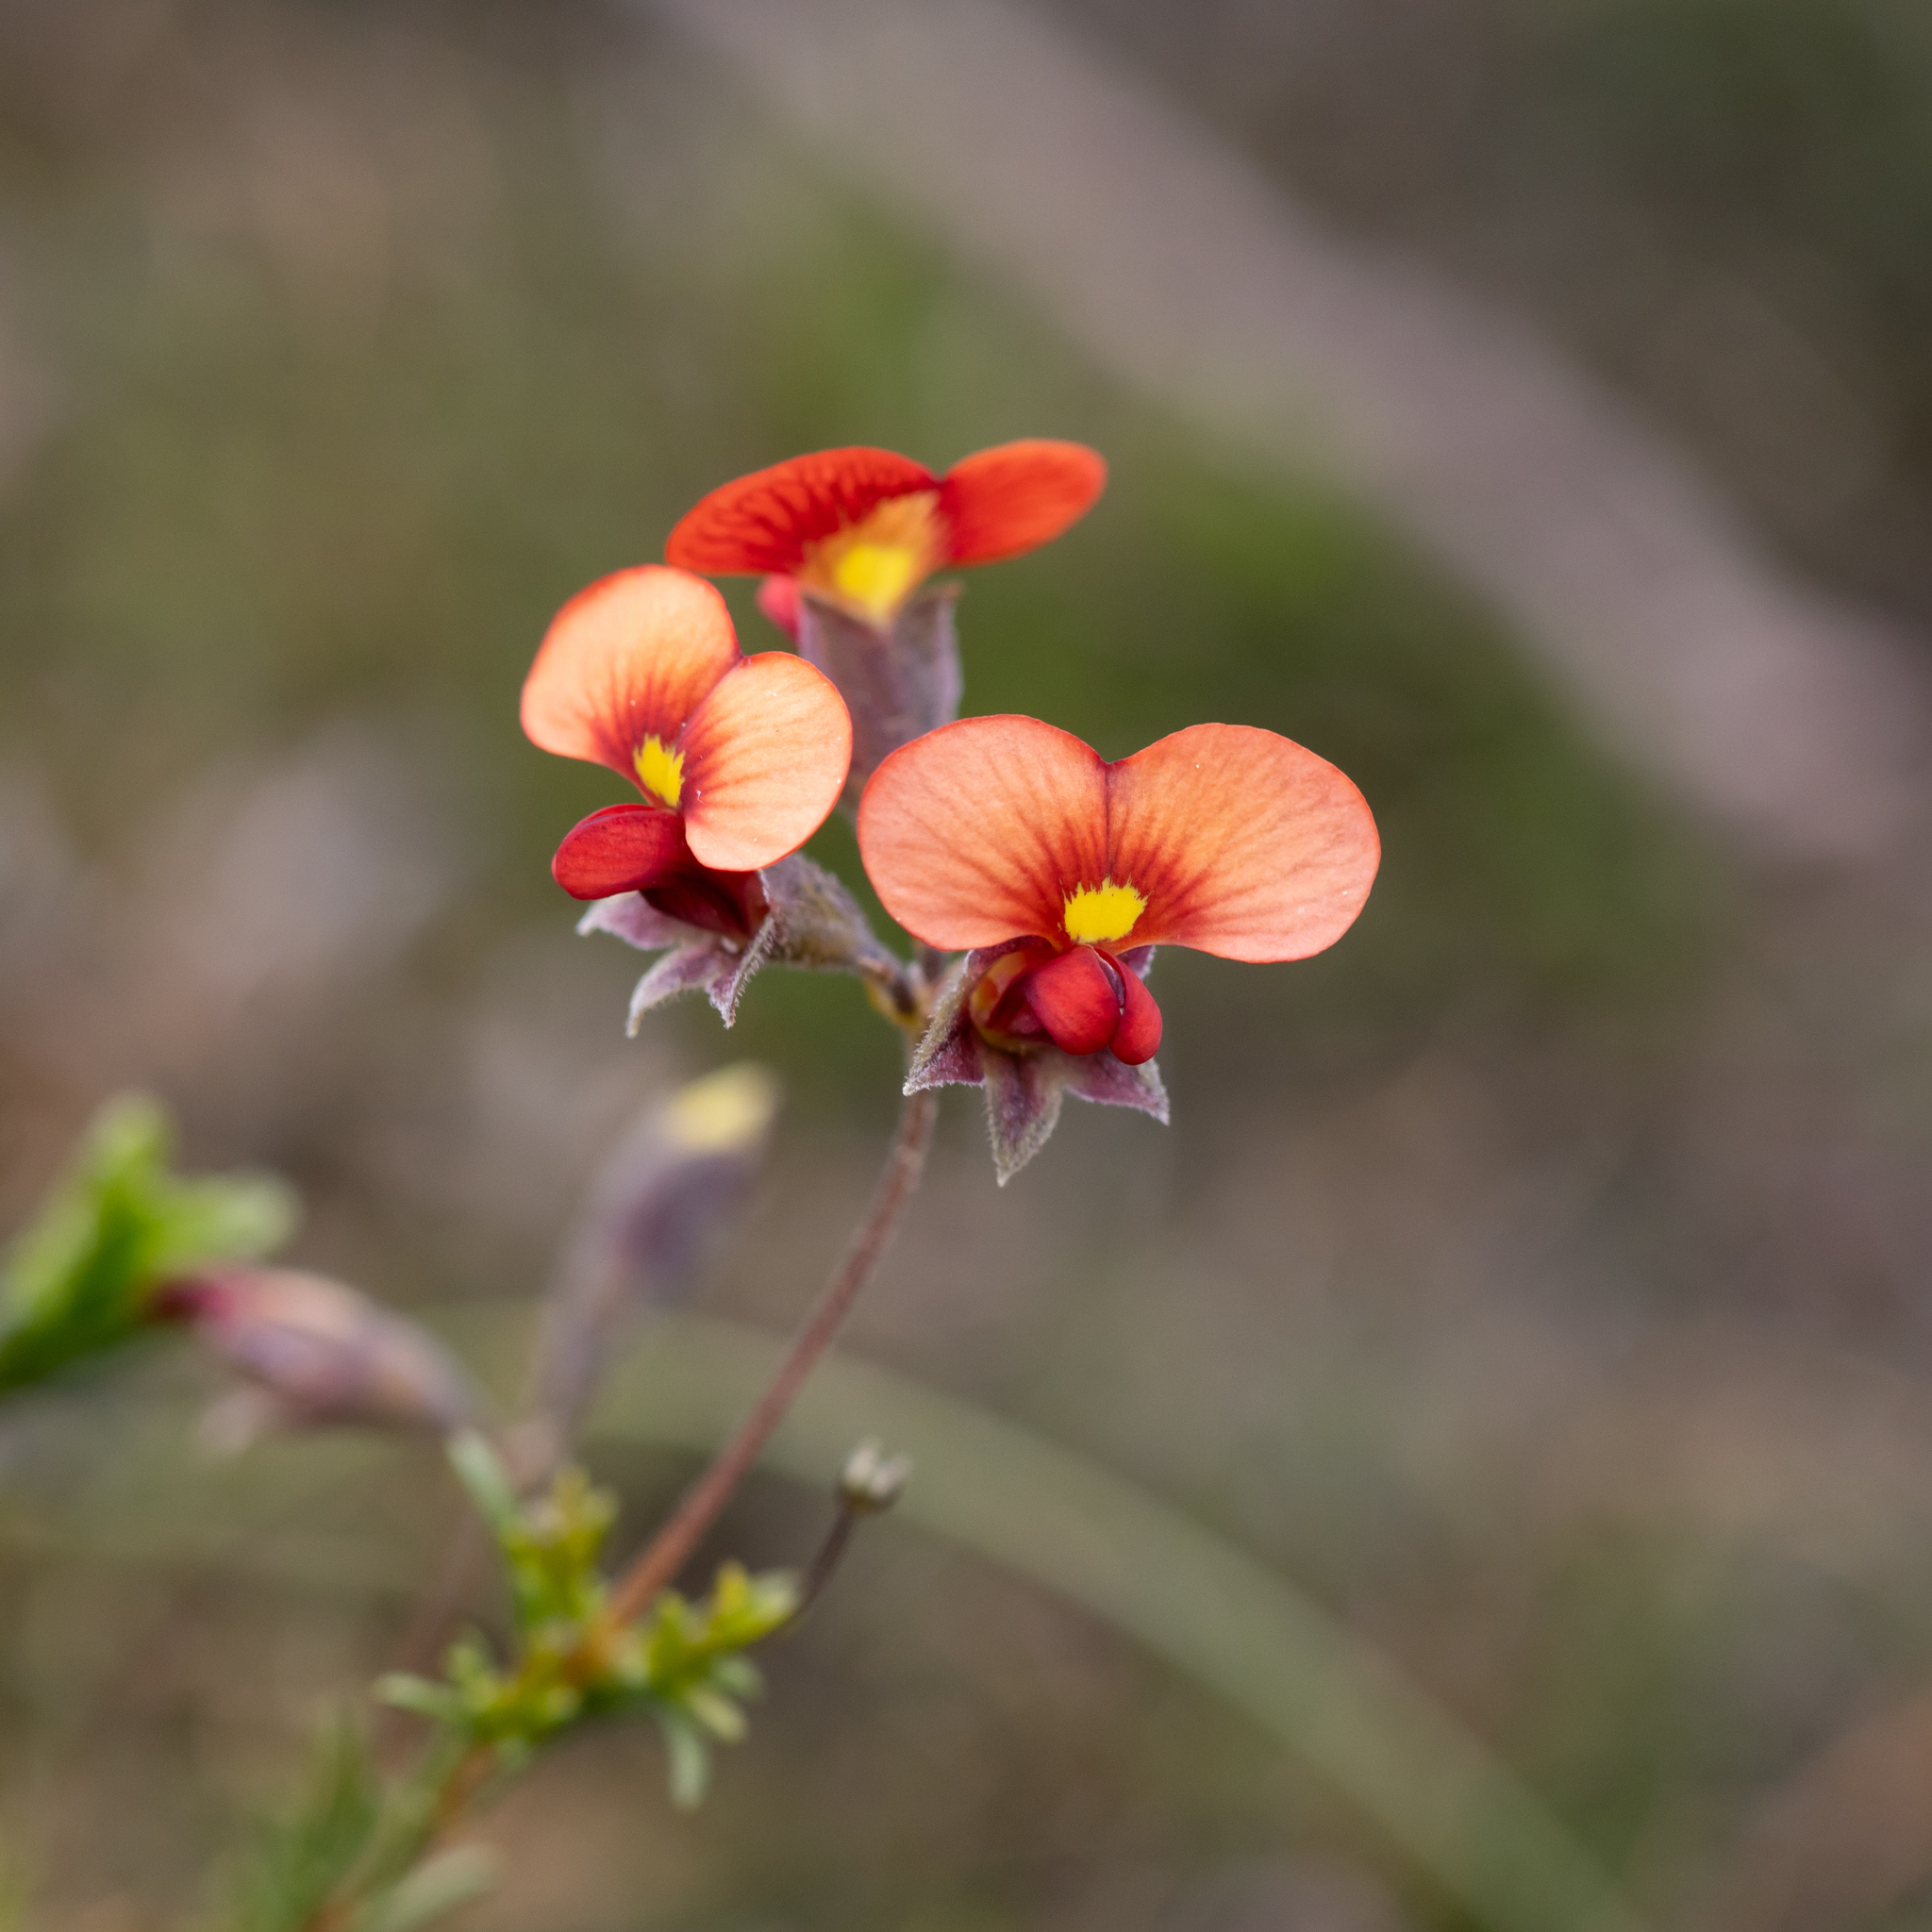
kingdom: Plantae
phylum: Tracheophyta
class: Magnoliopsida
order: Fabales
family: Fabaceae
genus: Dillwynia
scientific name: Dillwynia hispida
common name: Red parrot-pea
